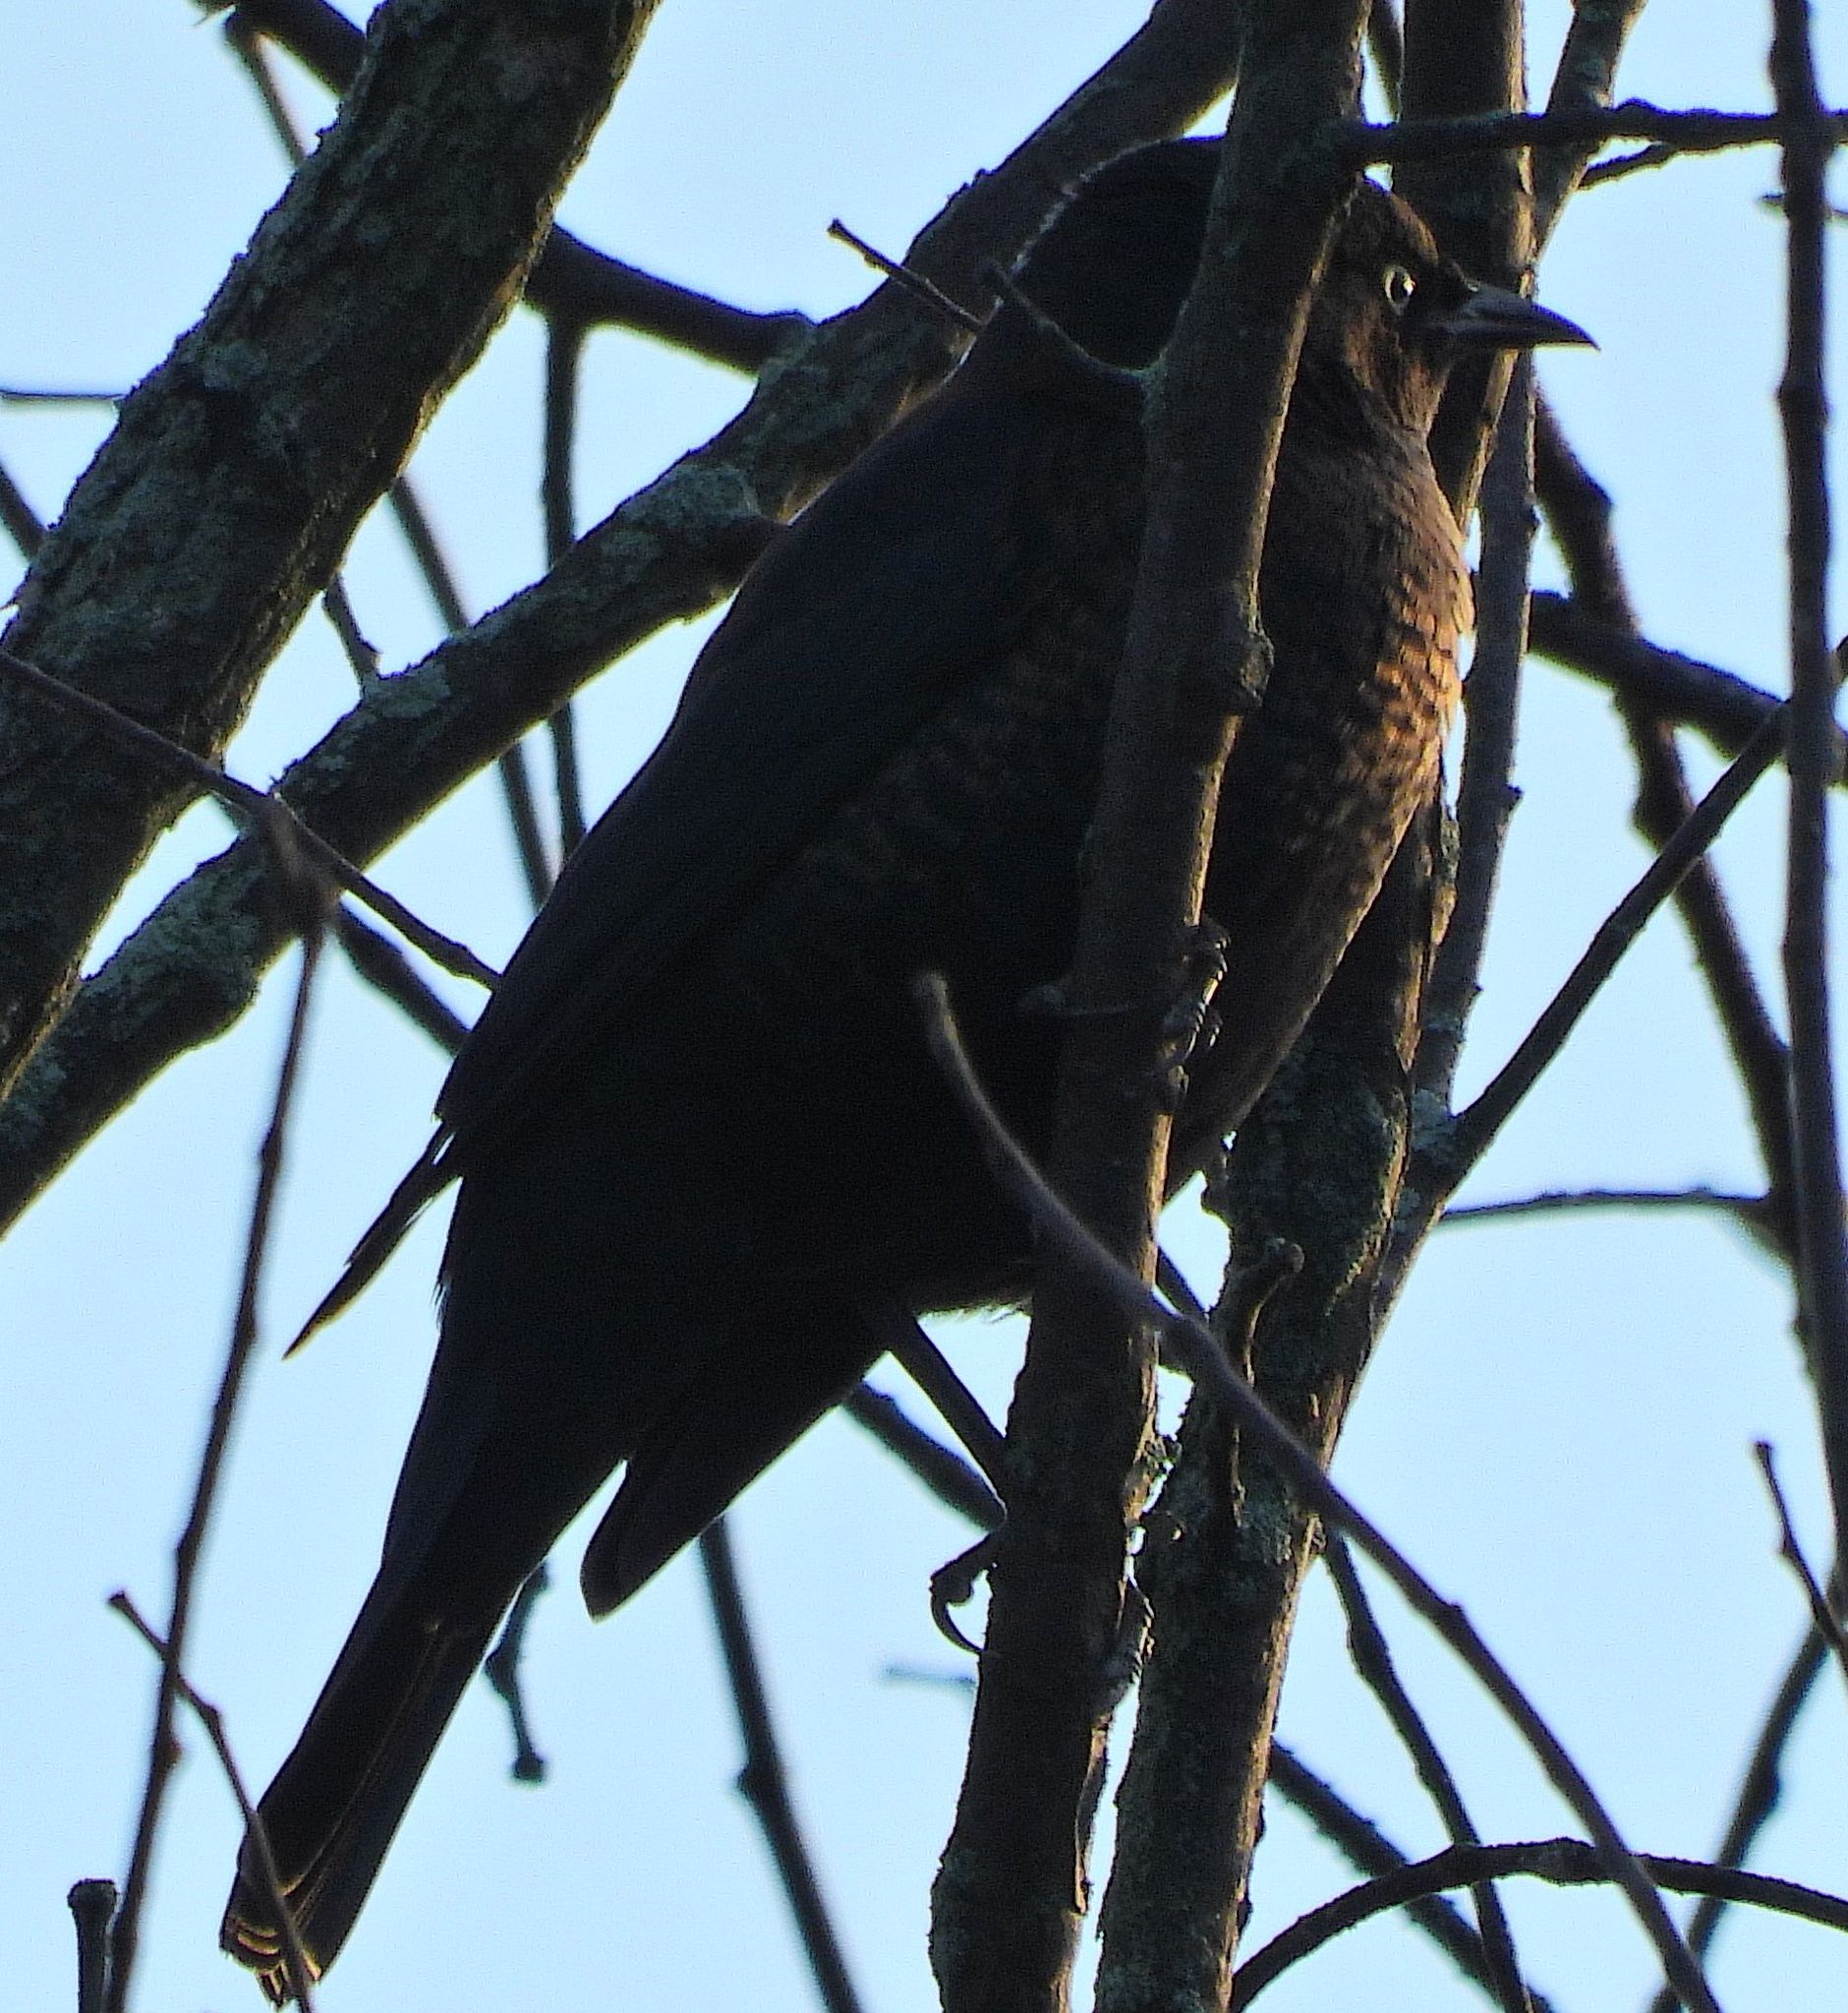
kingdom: Animalia
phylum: Chordata
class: Aves
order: Passeriformes
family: Icteridae
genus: Euphagus
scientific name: Euphagus carolinus
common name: Rusty blackbird
